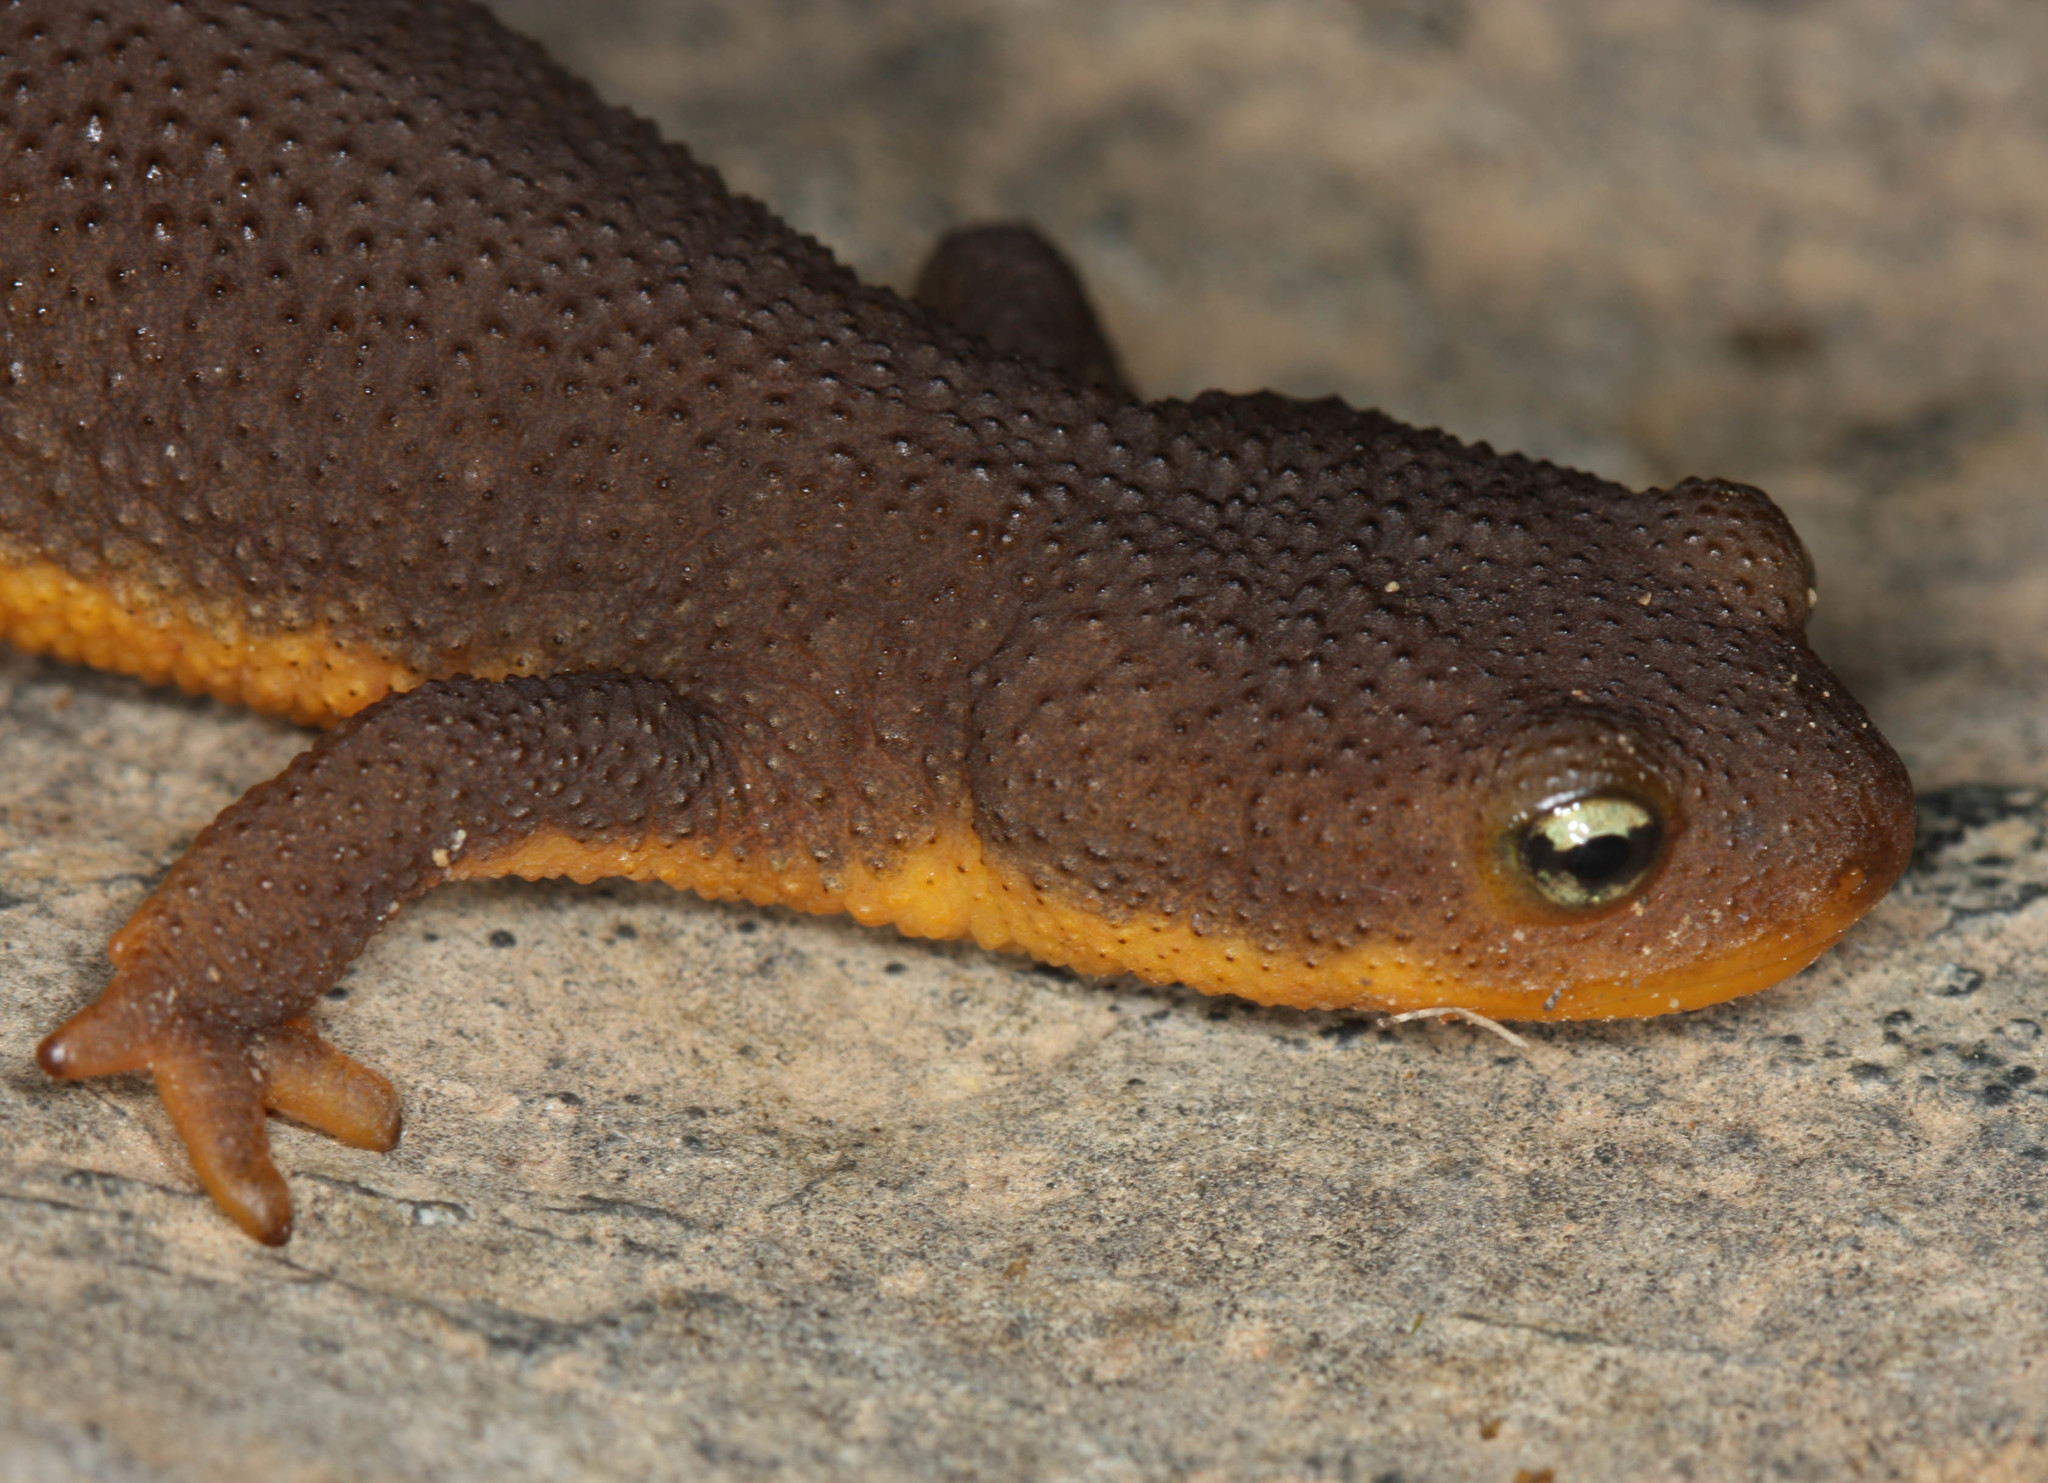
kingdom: Animalia
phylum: Chordata
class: Amphibia
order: Caudata
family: Salamandridae
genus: Taricha
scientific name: Taricha granulosa
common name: Roughskin newt
